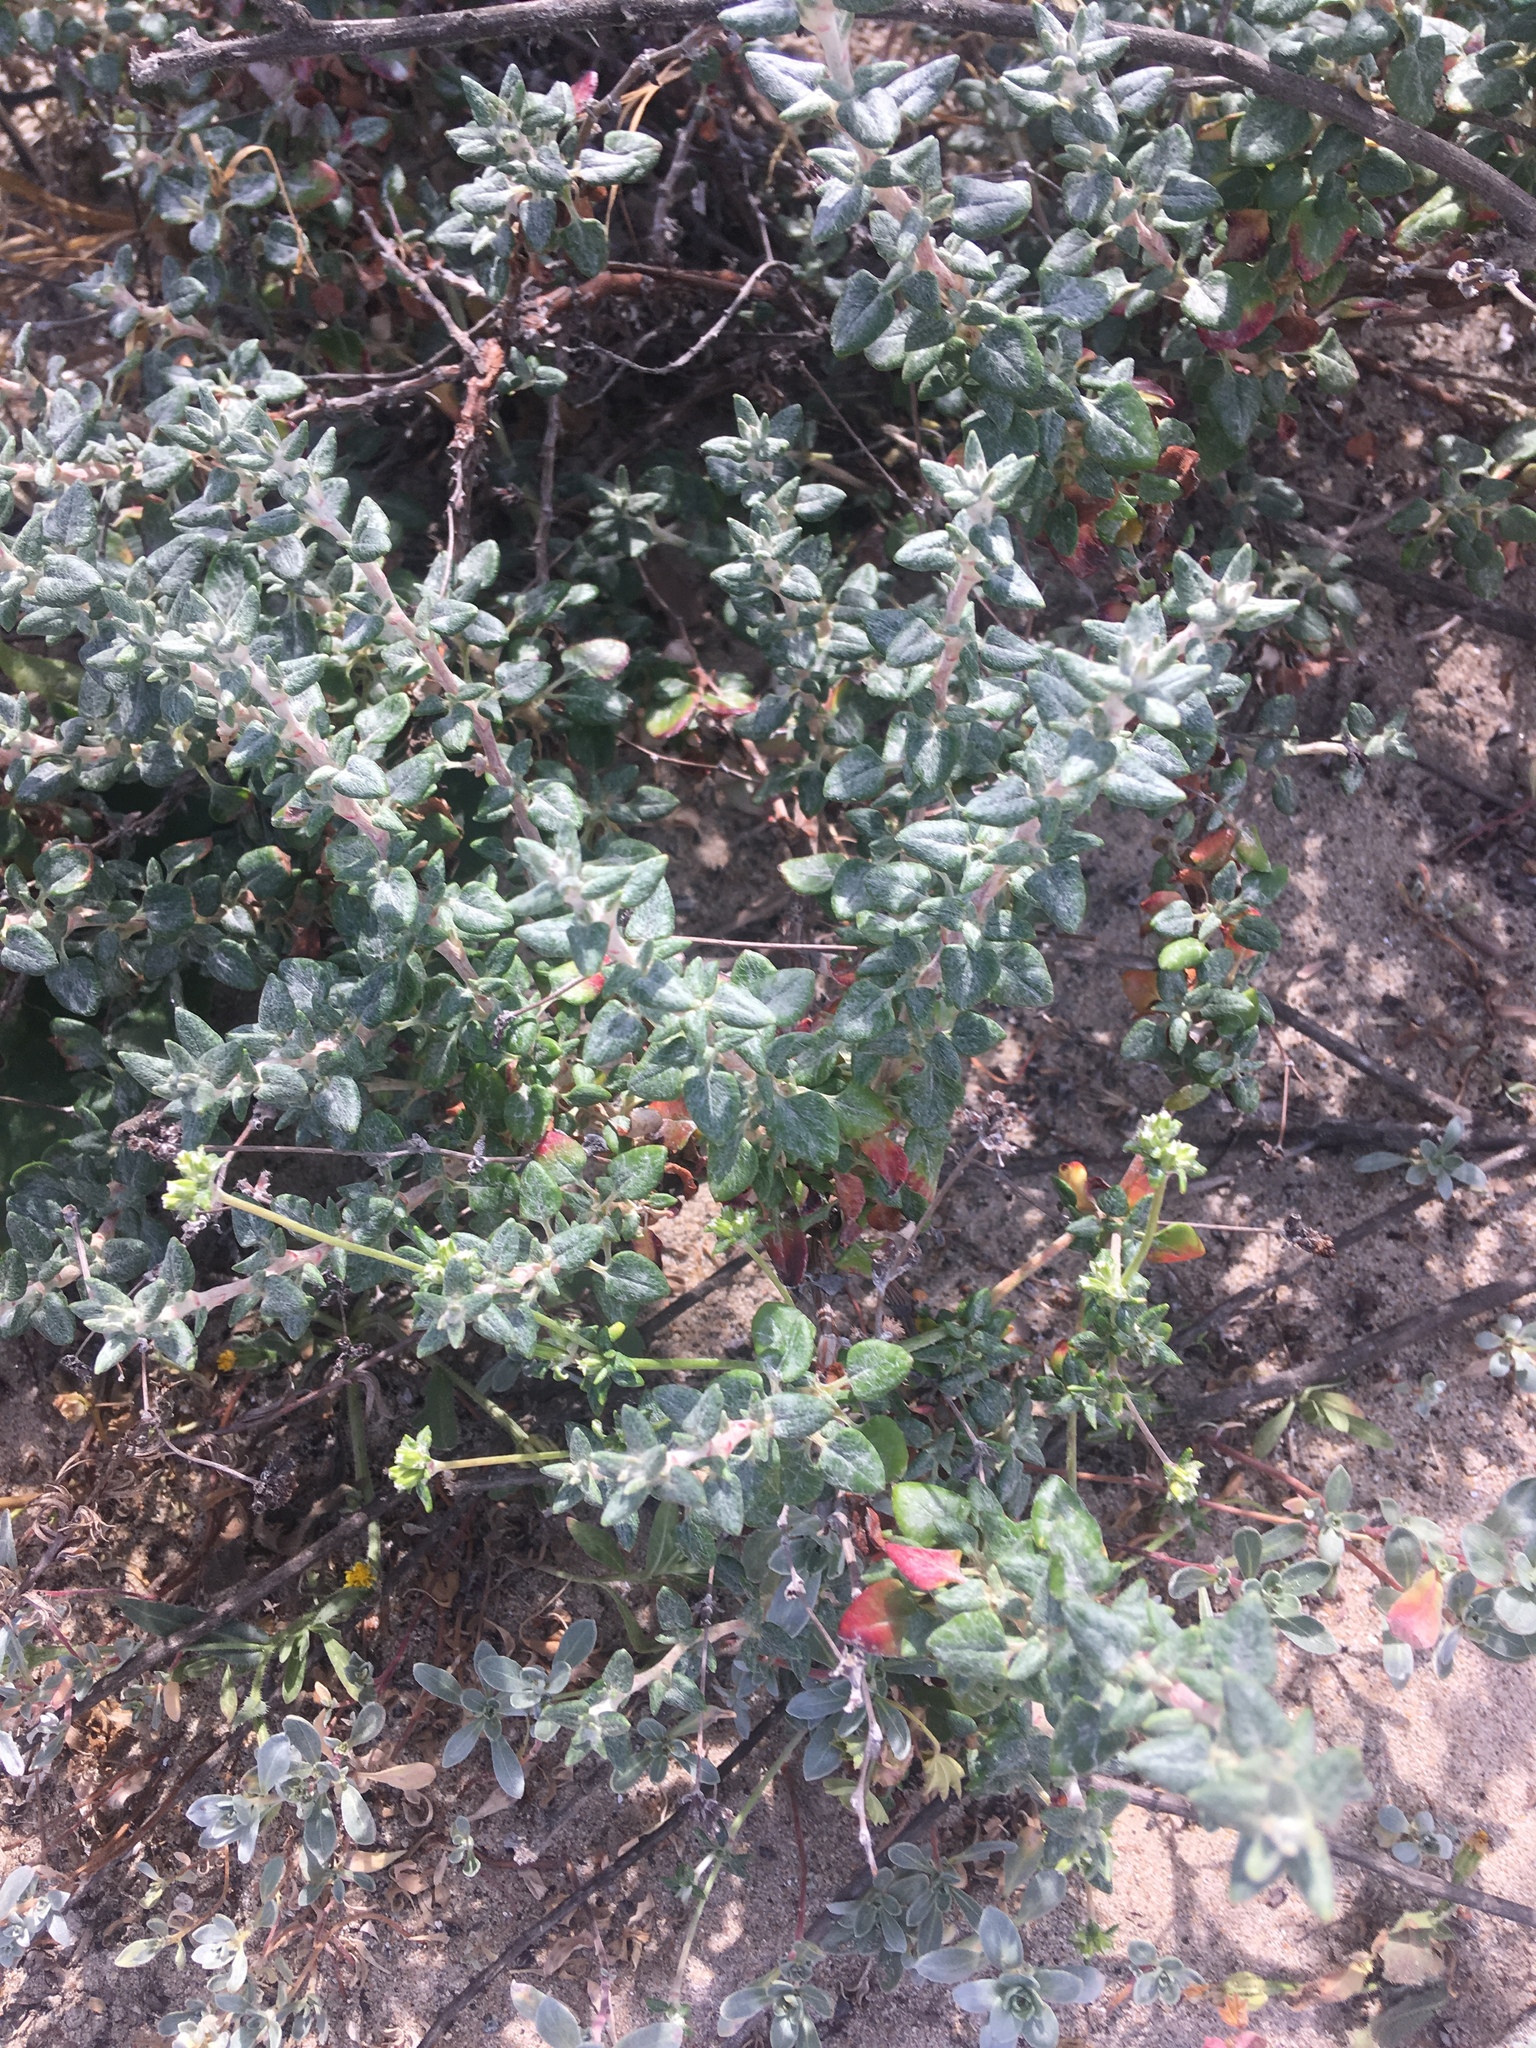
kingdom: Plantae
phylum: Tracheophyta
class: Magnoliopsida
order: Caryophyllales
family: Polygonaceae
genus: Eriogonum
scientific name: Eriogonum parvifolium
